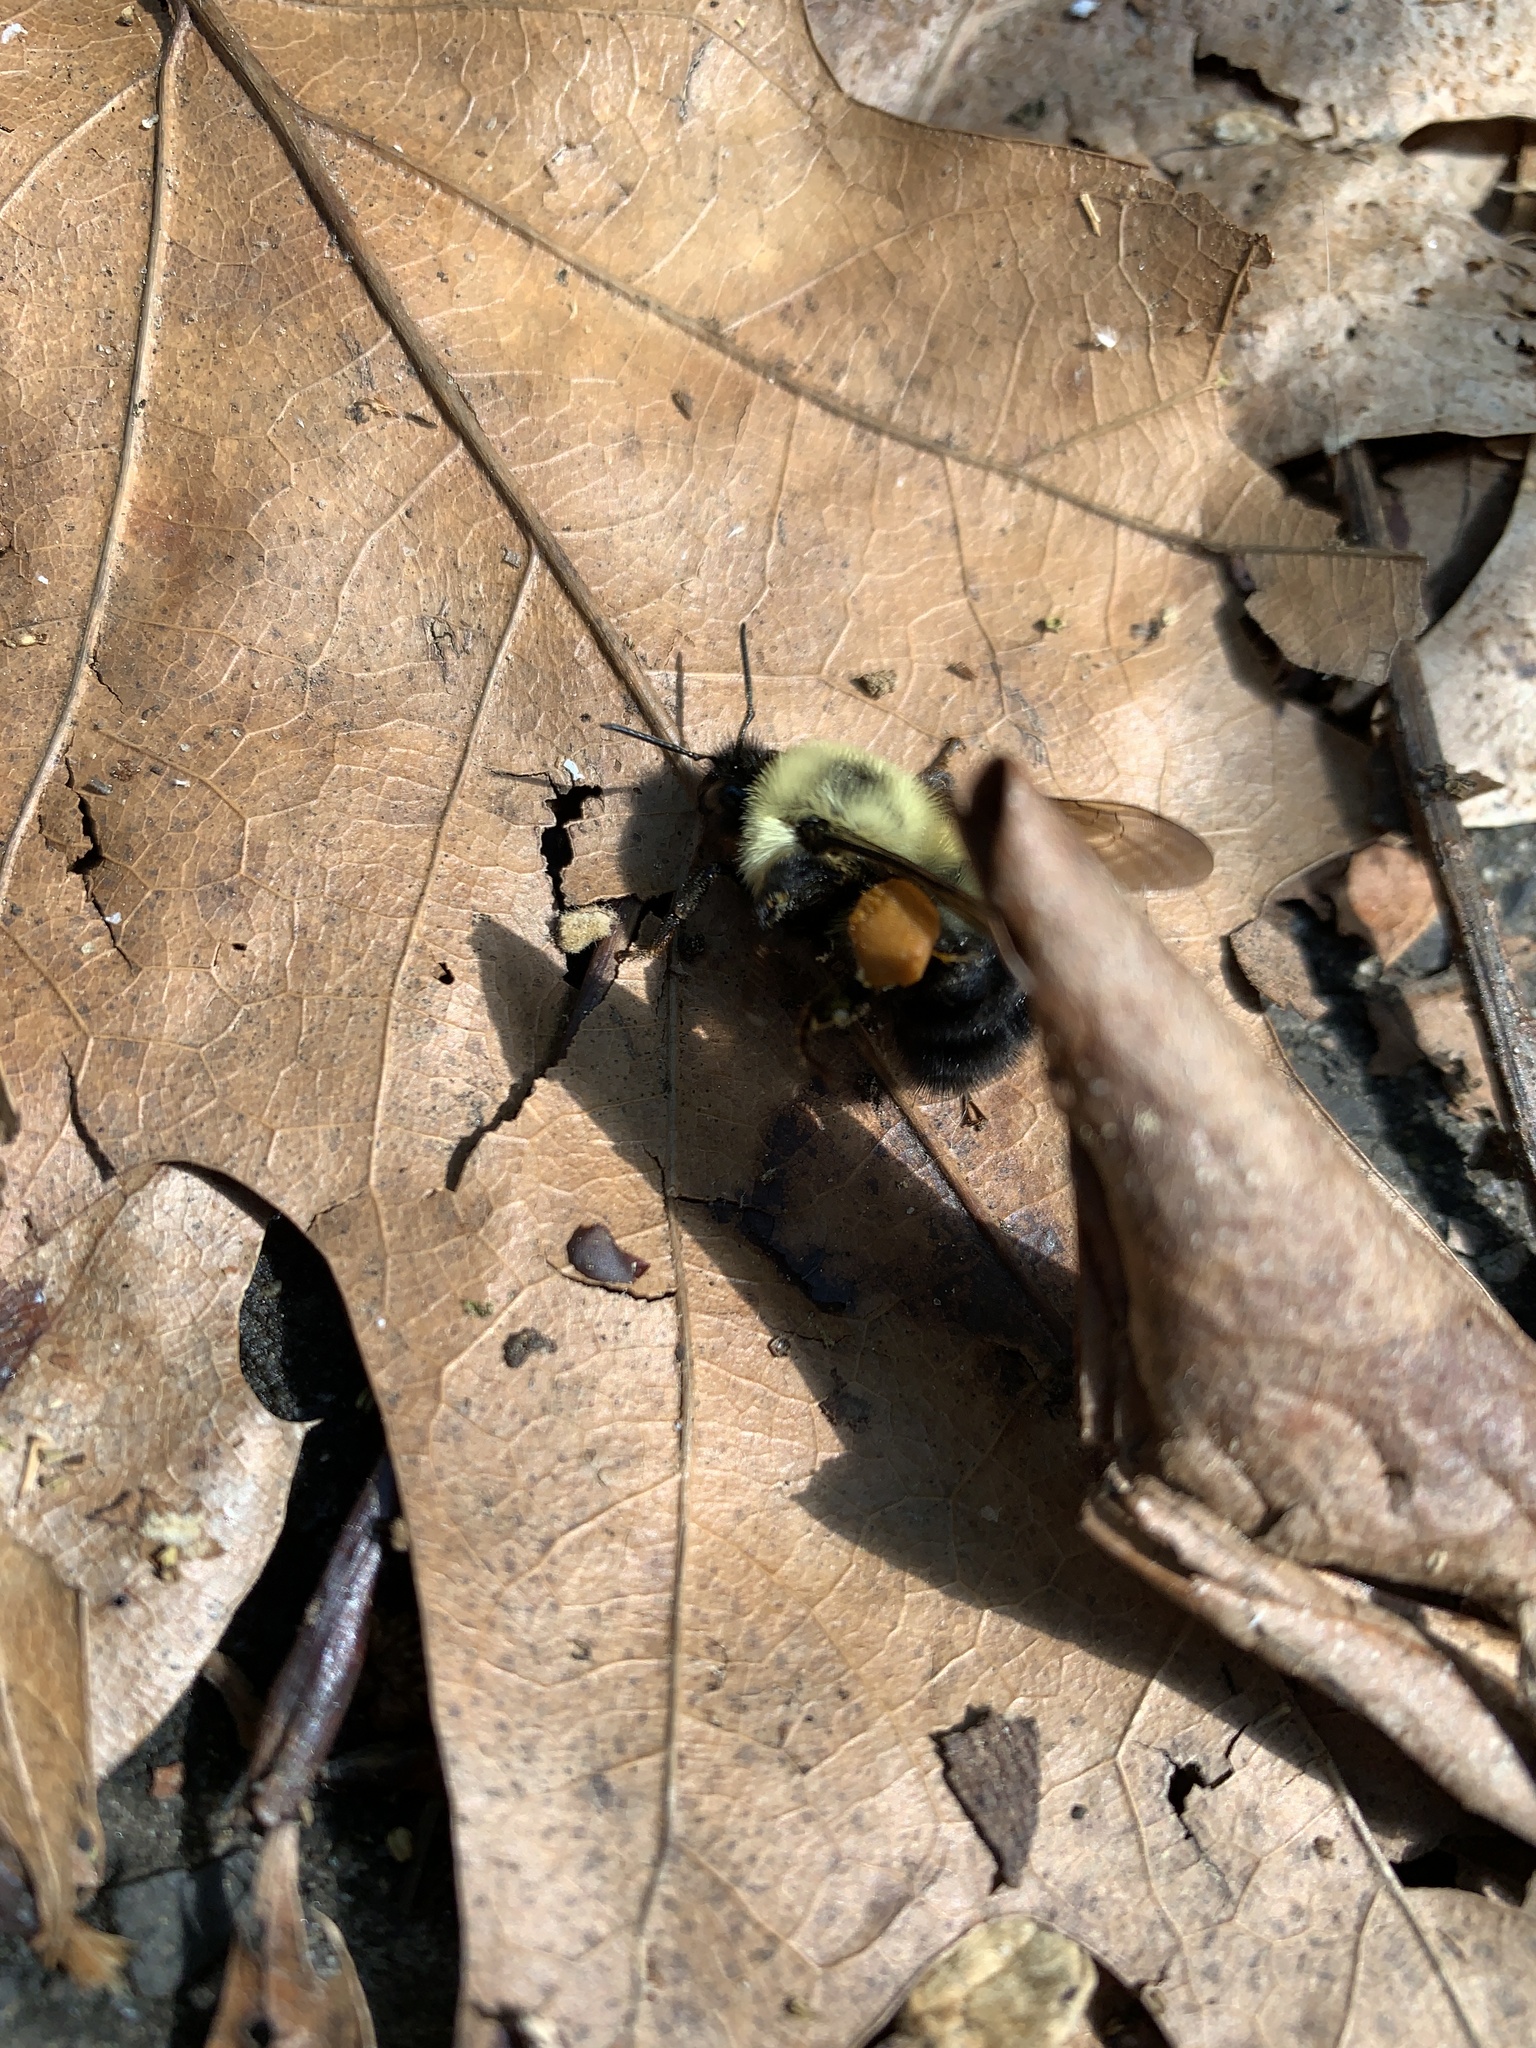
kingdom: Animalia
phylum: Arthropoda
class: Insecta
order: Hymenoptera
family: Apidae
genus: Bombus
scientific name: Bombus bimaculatus
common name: Two-spotted bumble bee
